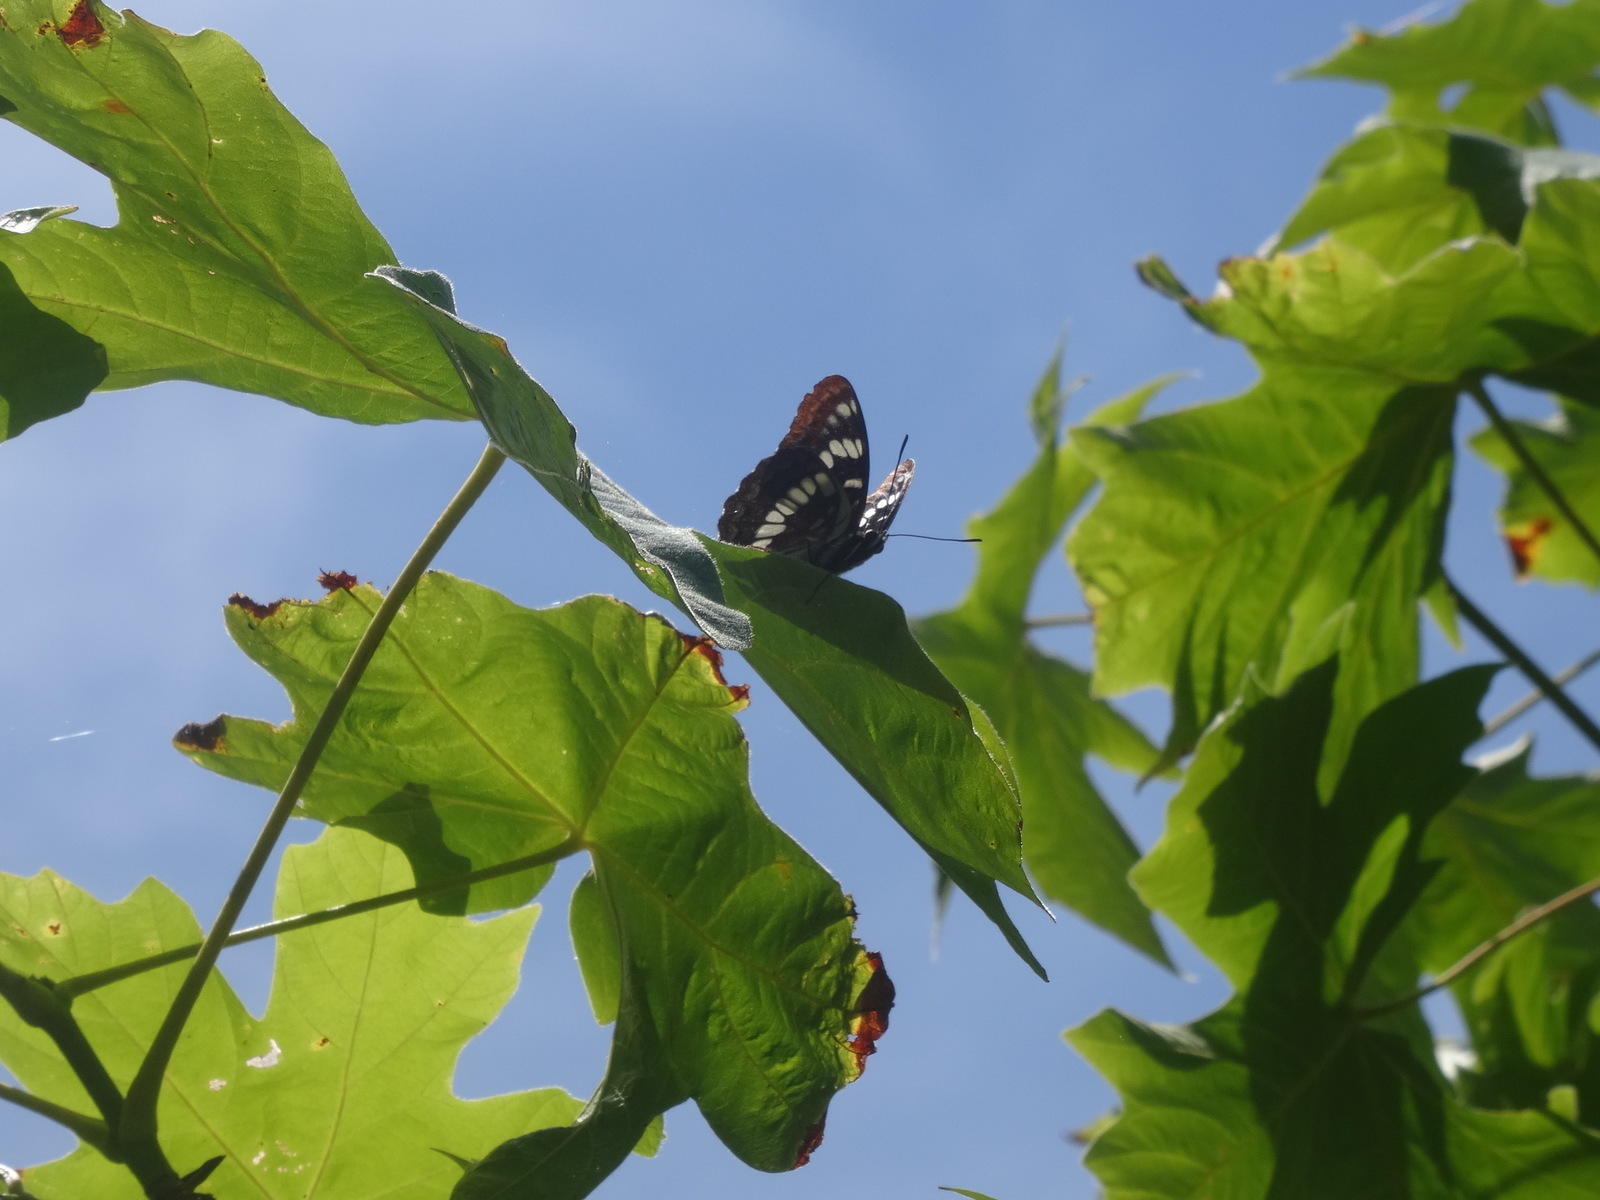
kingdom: Animalia
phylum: Arthropoda
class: Insecta
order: Lepidoptera
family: Nymphalidae
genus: Limenitis
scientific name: Limenitis lorquini
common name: Lorquin's admiral
